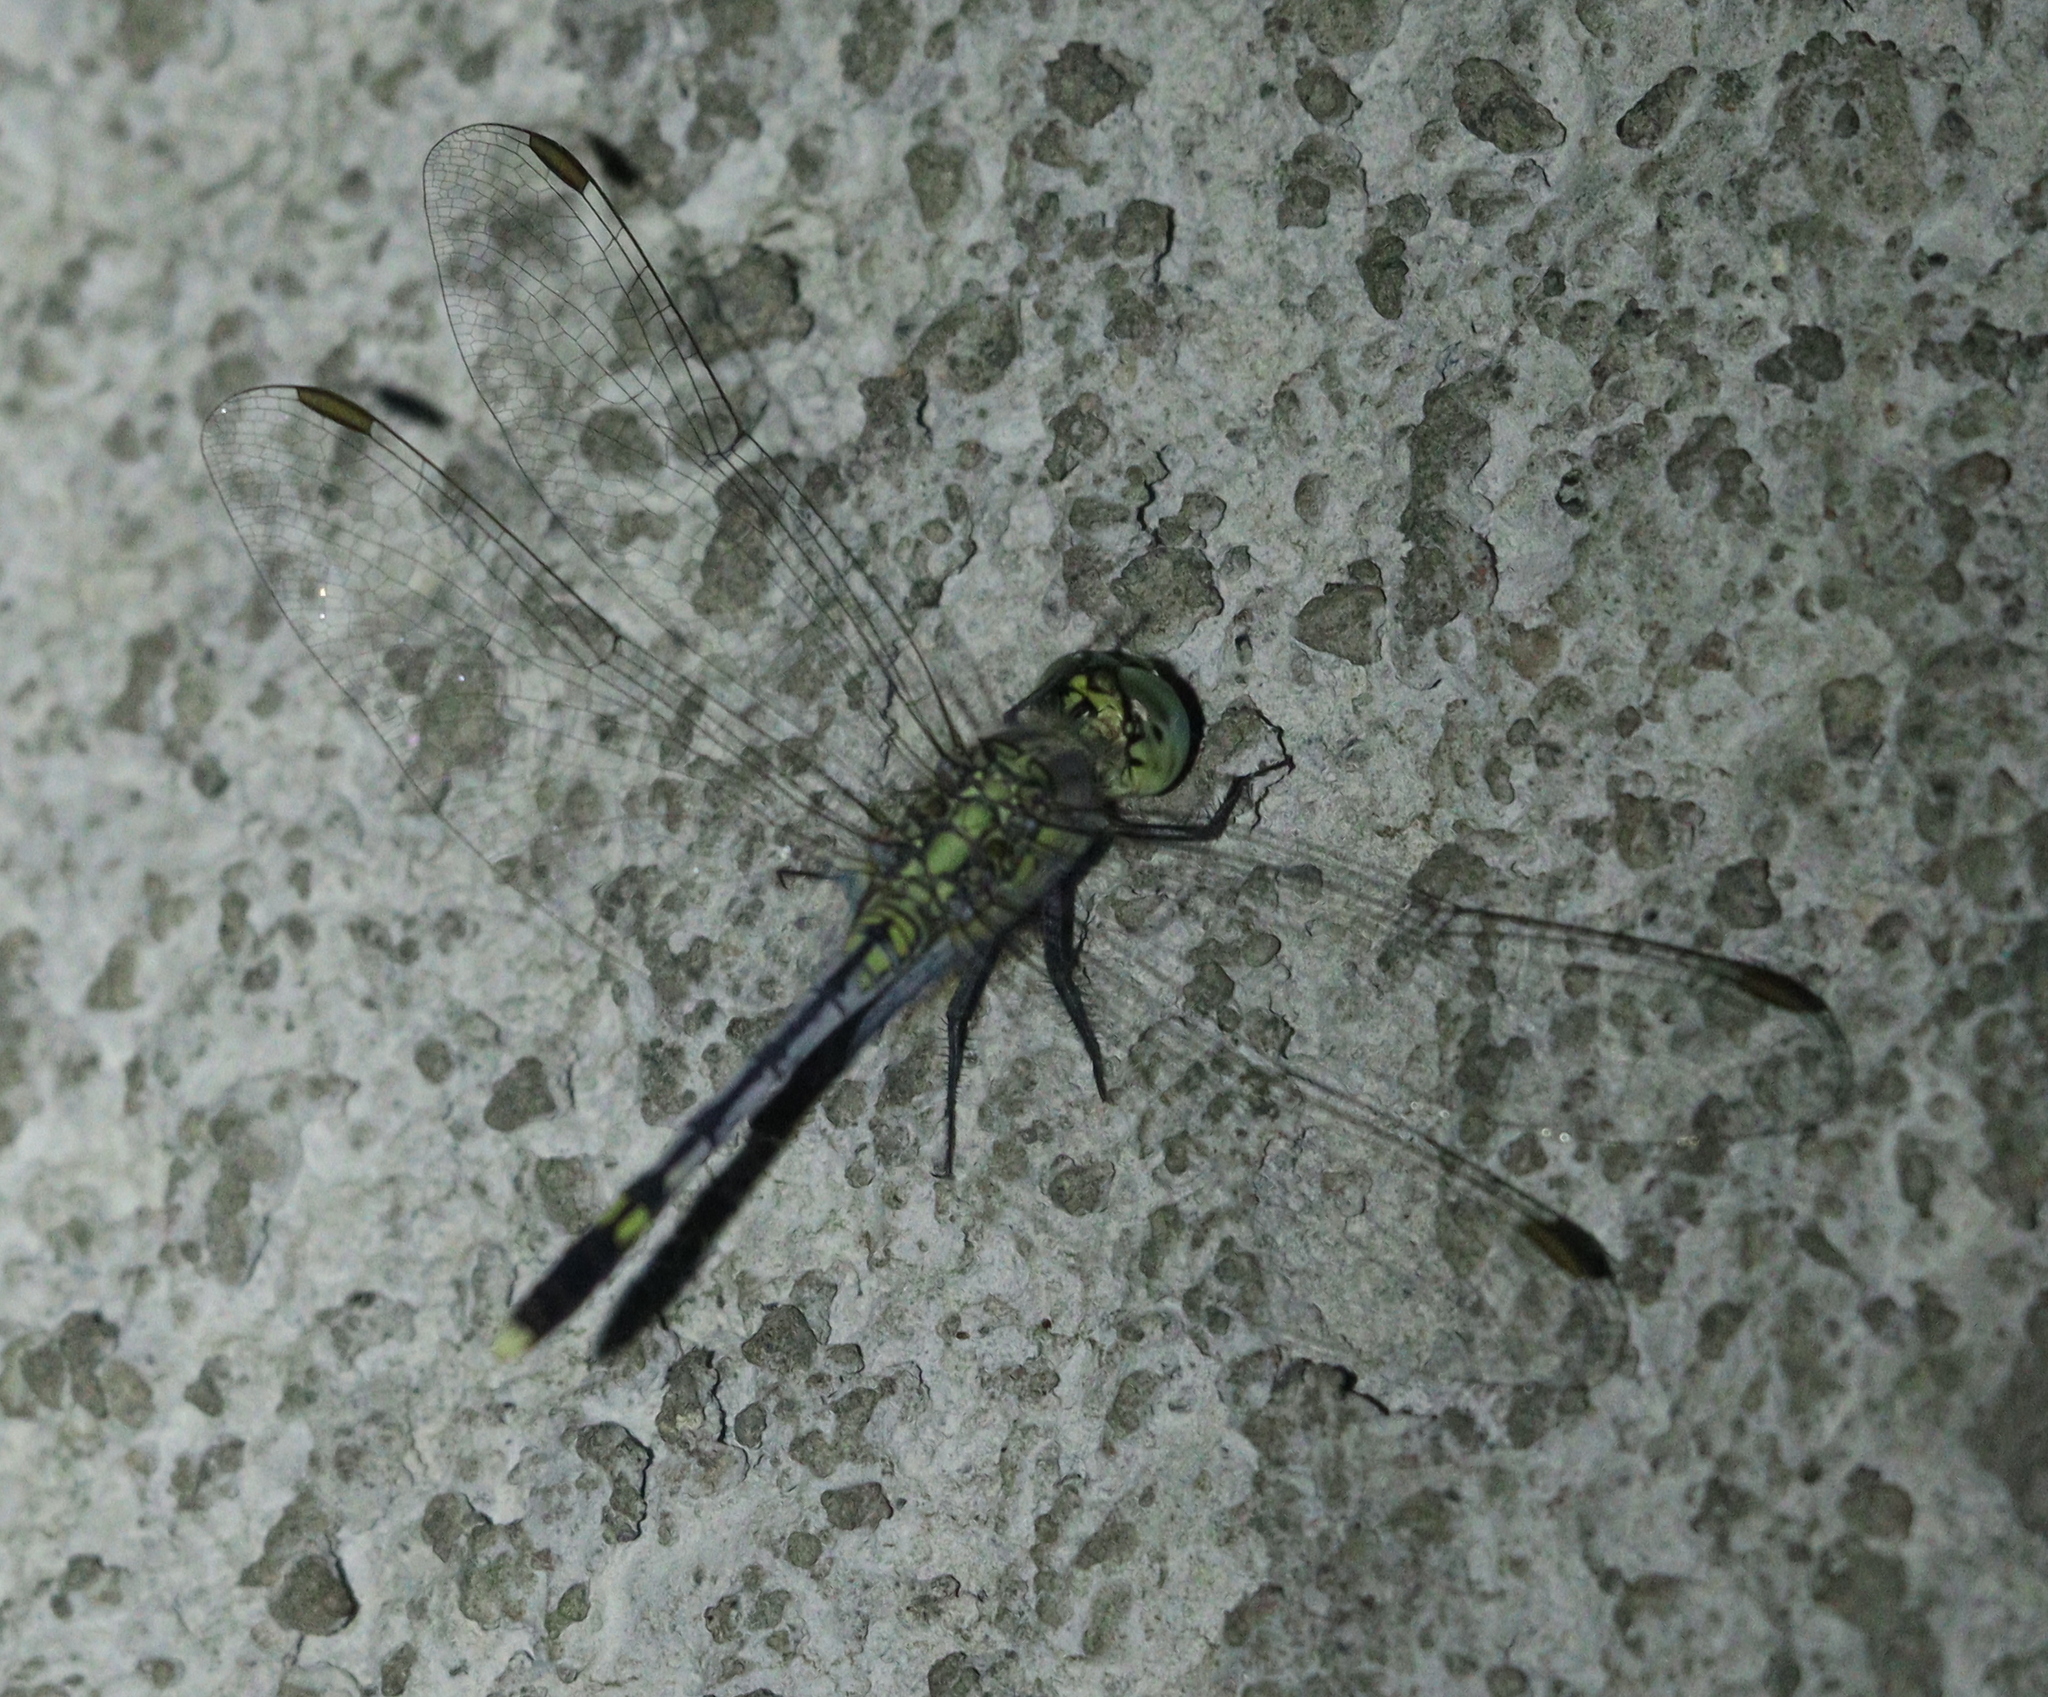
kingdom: Animalia
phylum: Arthropoda
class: Insecta
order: Odonata
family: Libellulidae
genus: Diplacodes
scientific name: Diplacodes trivialis
